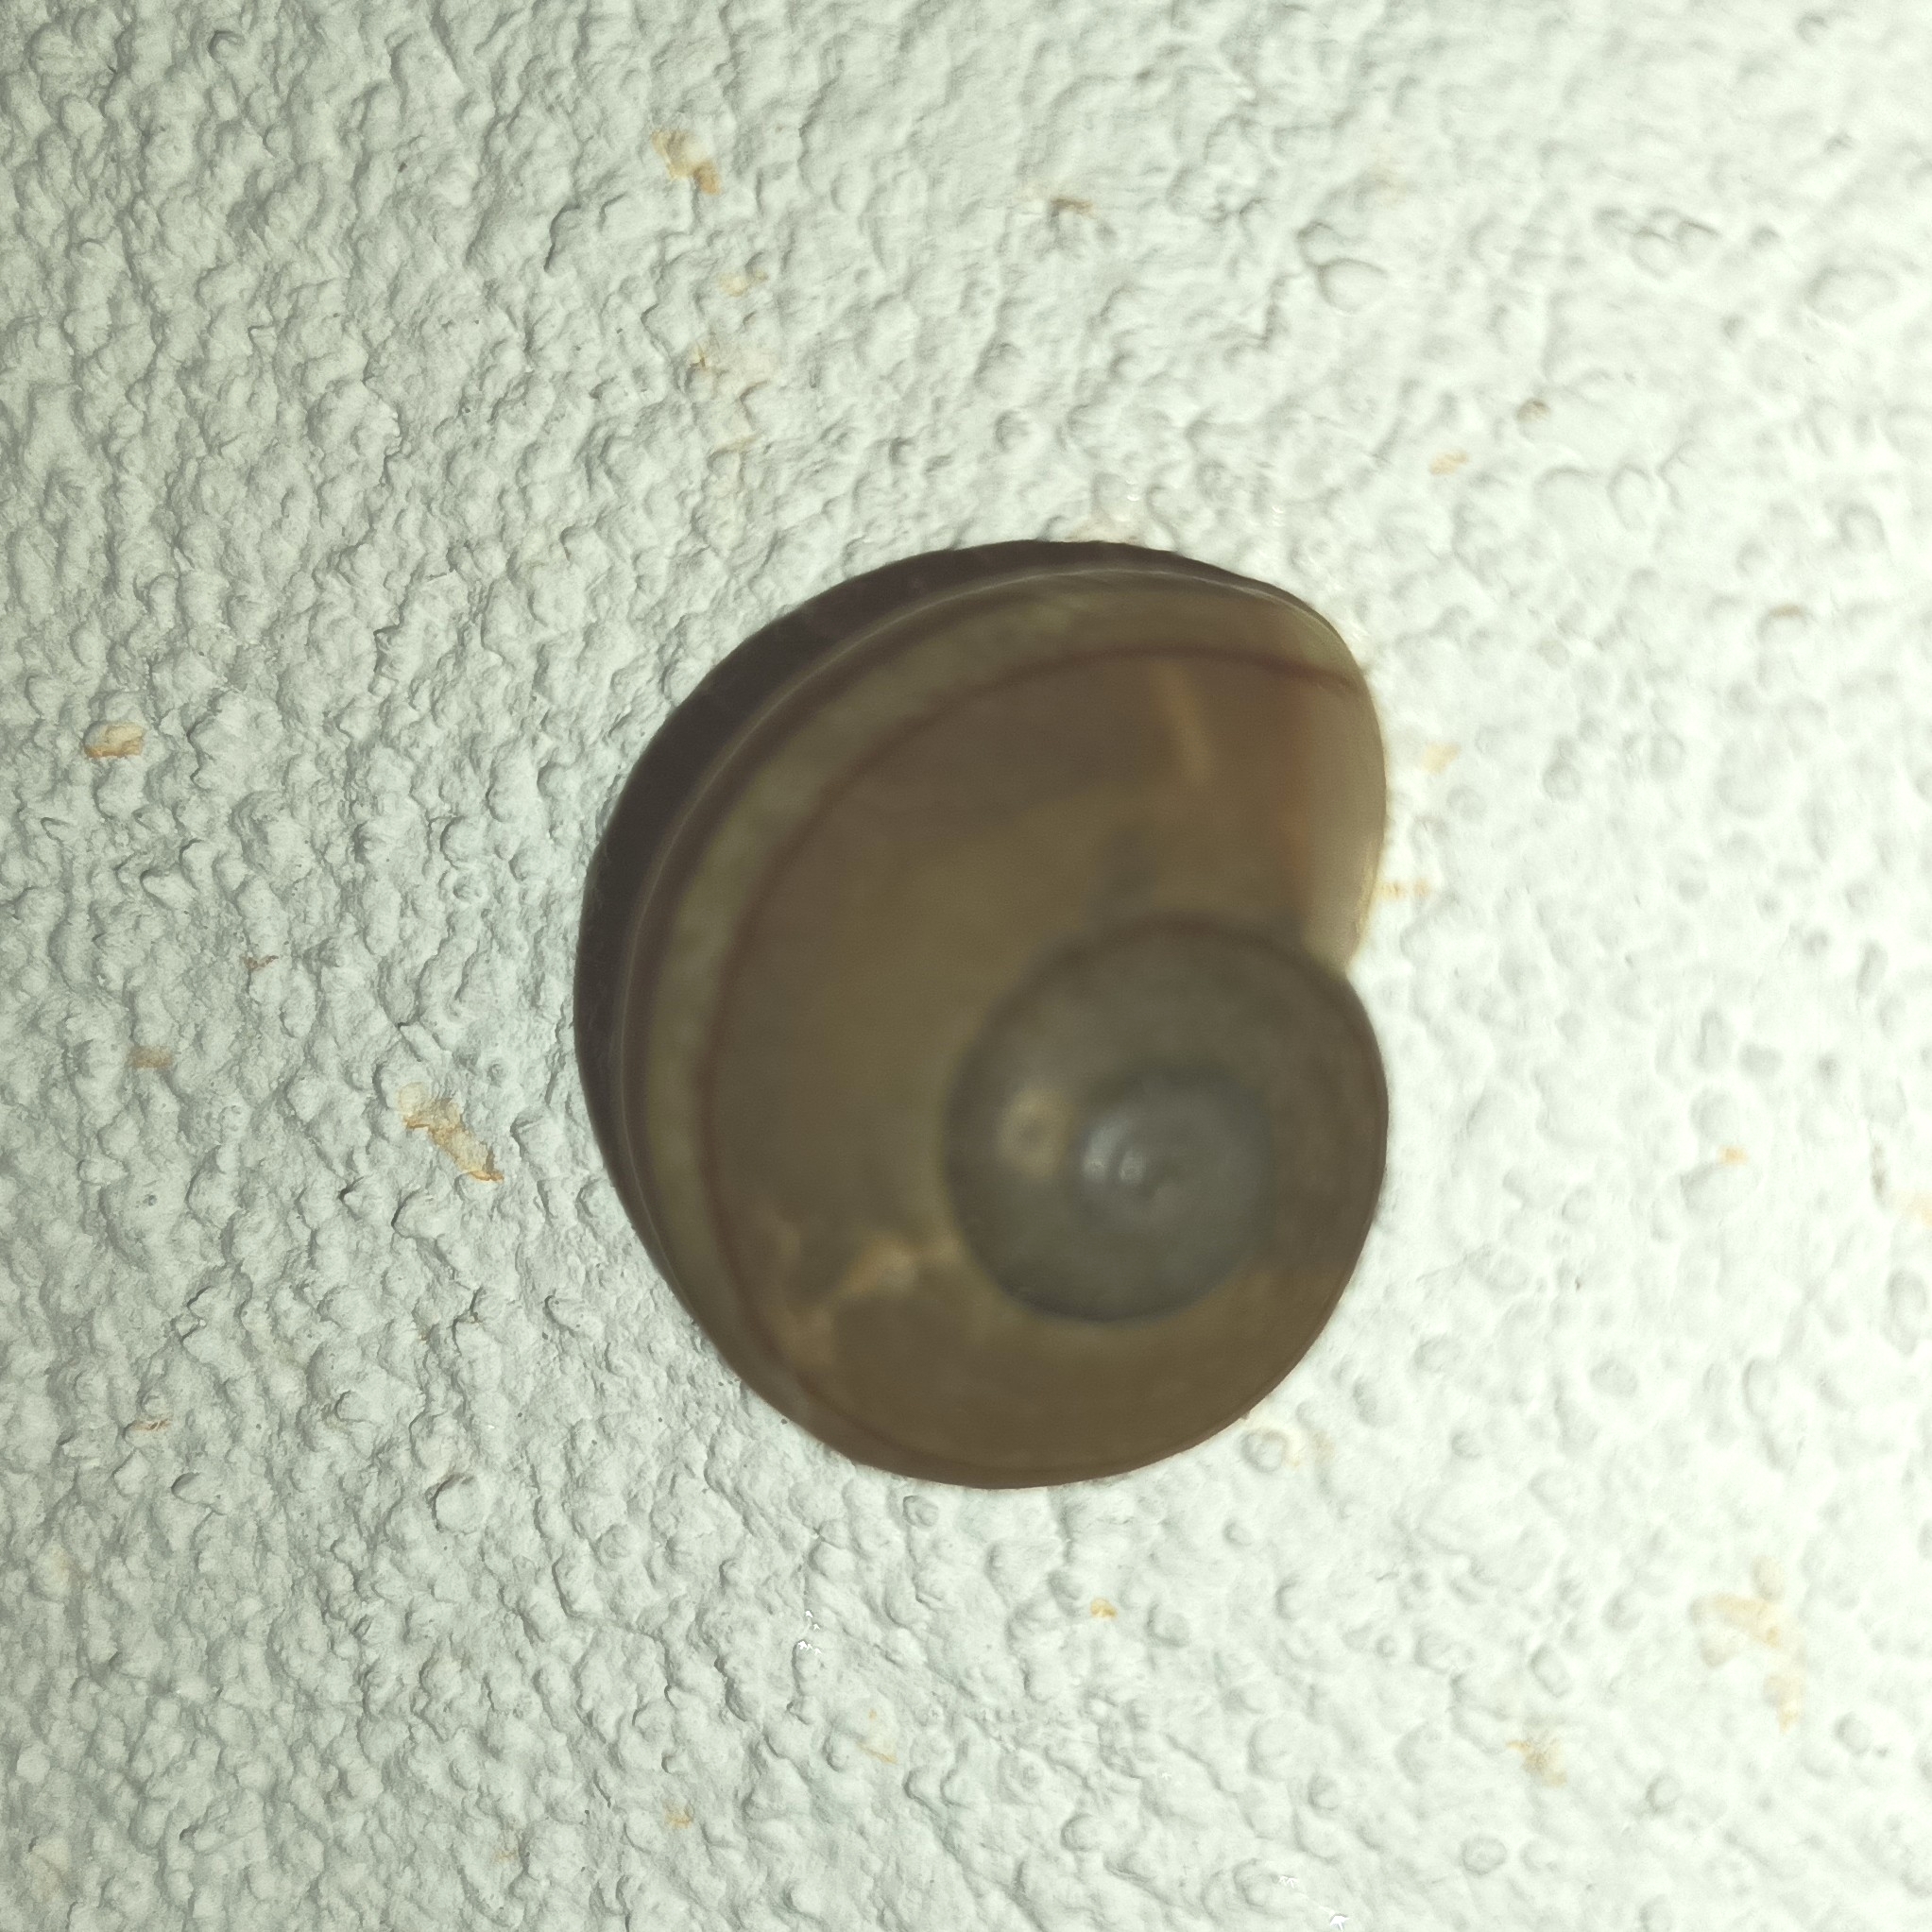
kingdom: Animalia
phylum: Mollusca
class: Gastropoda
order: Stylommatophora
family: Ariophantidae
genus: Ariophanta
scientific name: Ariophanta exilis
